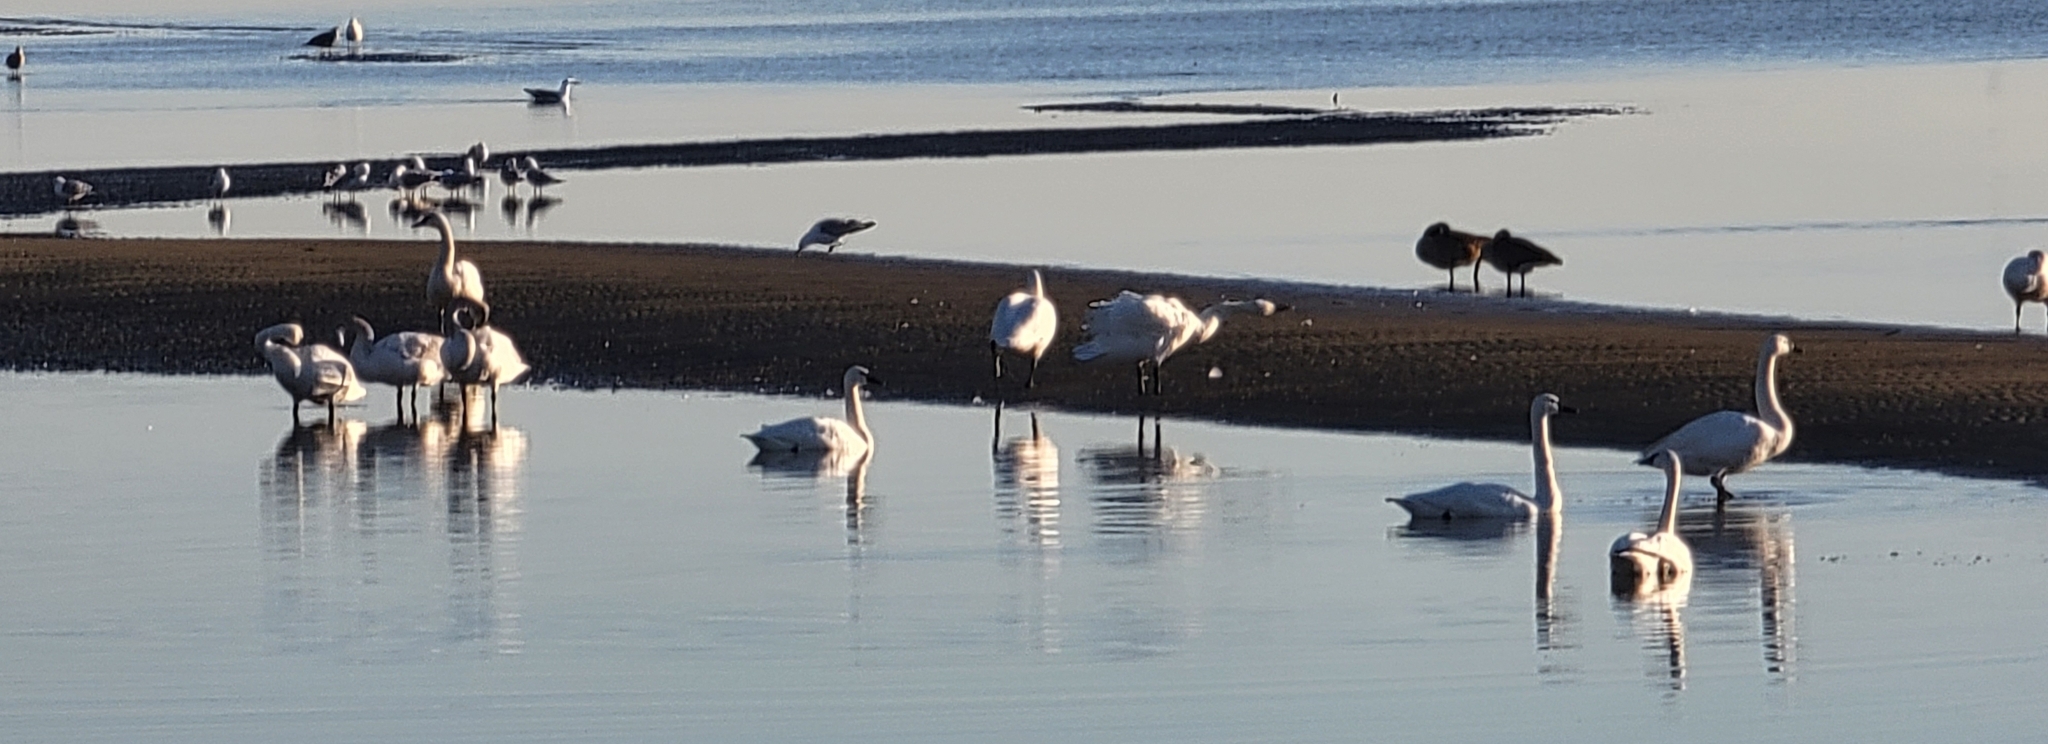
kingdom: Animalia
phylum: Chordata
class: Aves
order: Anseriformes
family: Anatidae
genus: Cygnus
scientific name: Cygnus columbianus
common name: Tundra swan
